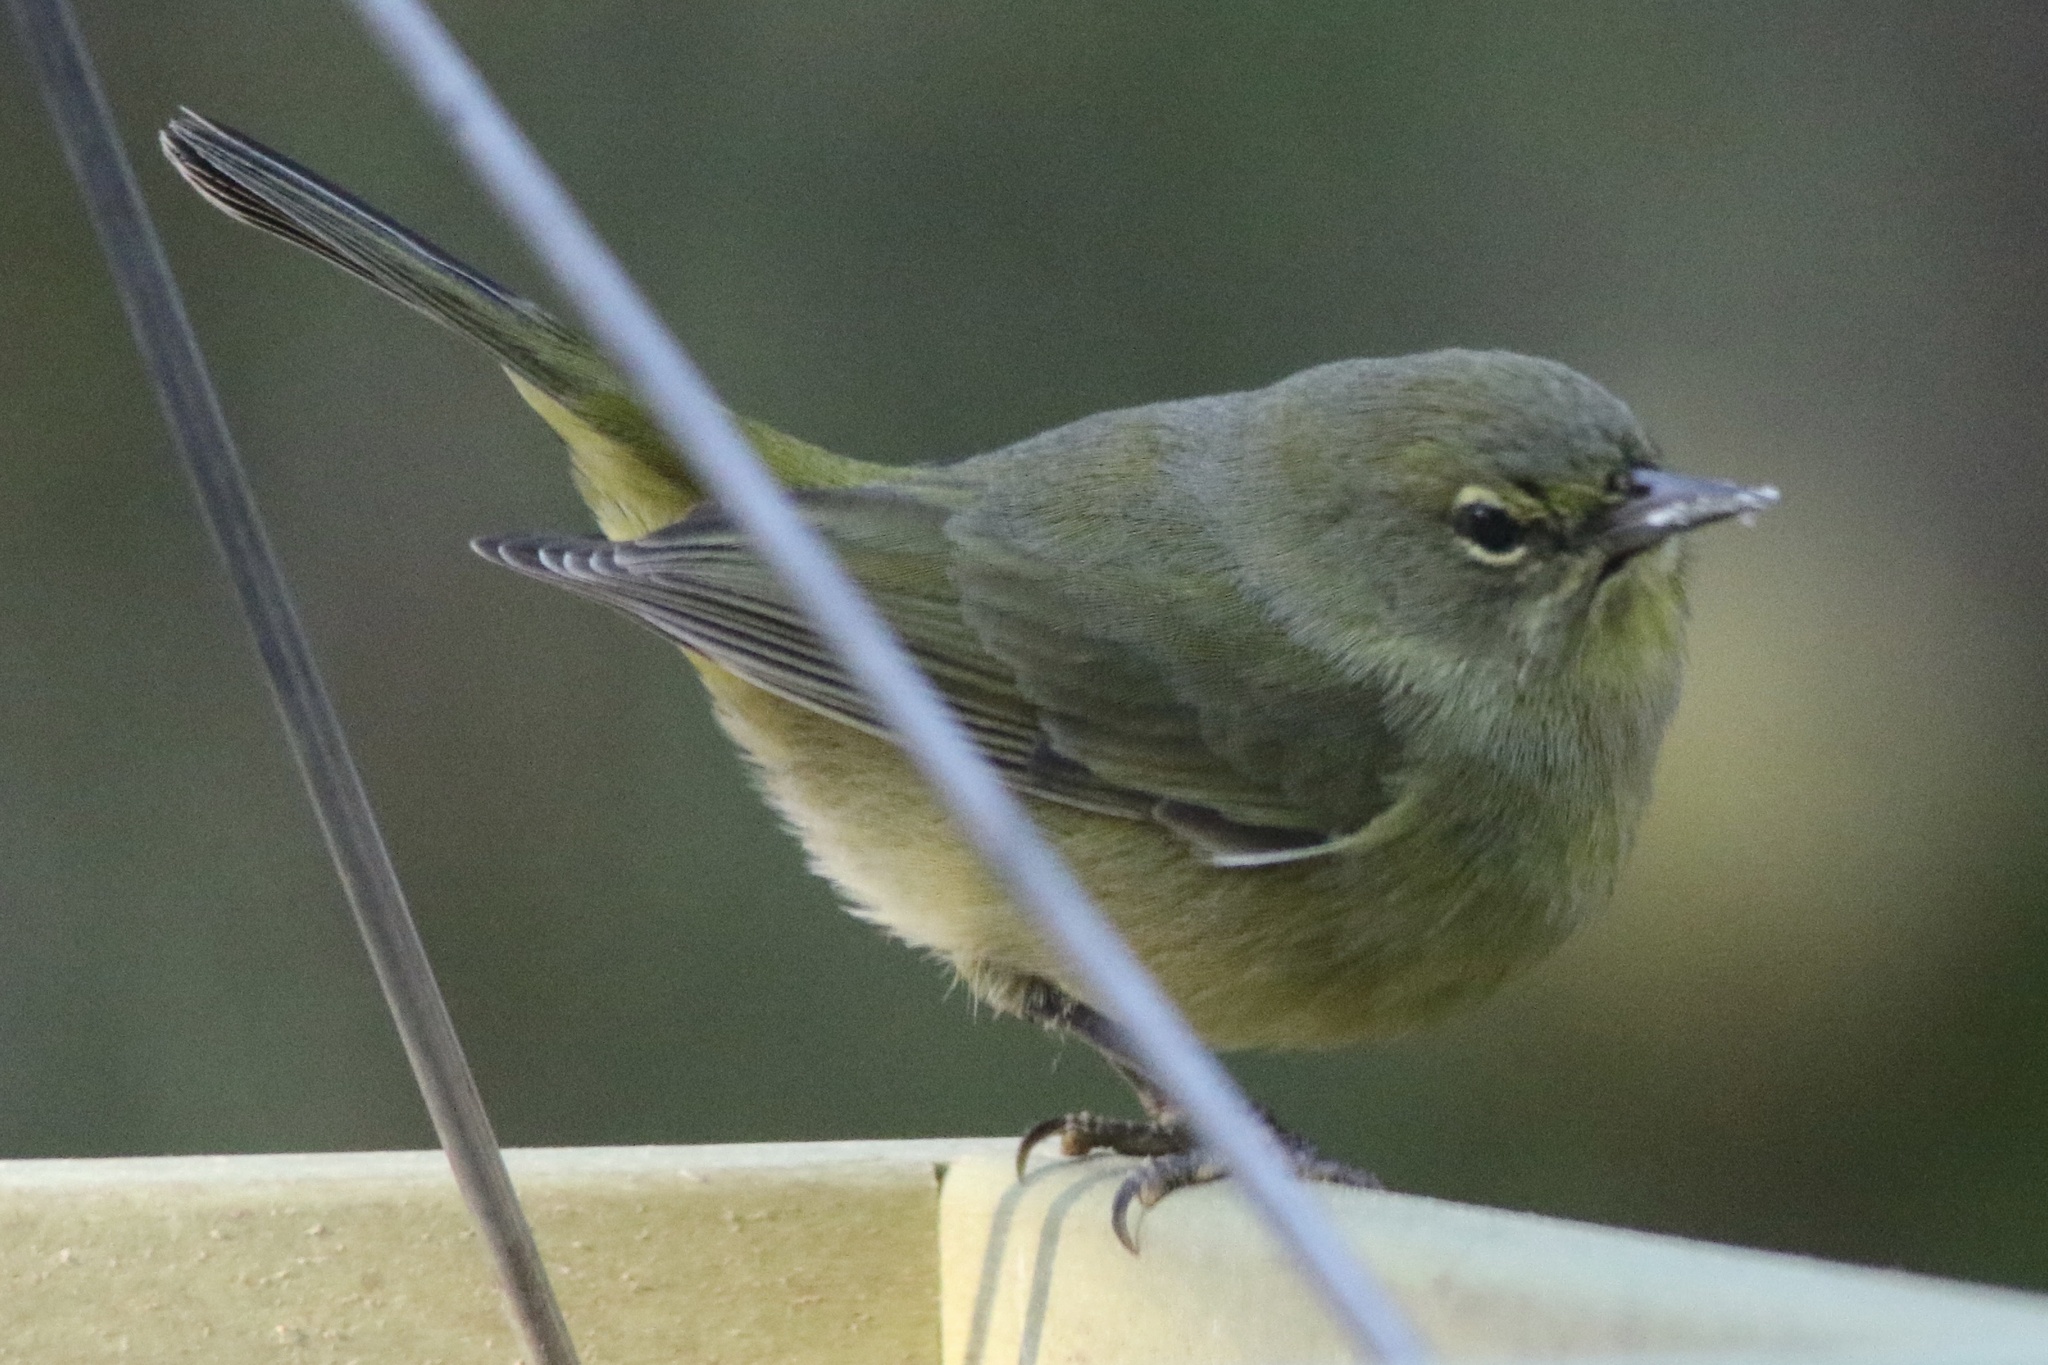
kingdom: Animalia
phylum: Chordata
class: Aves
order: Passeriformes
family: Parulidae
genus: Leiothlypis
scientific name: Leiothlypis celata
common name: Orange-crowned warbler
